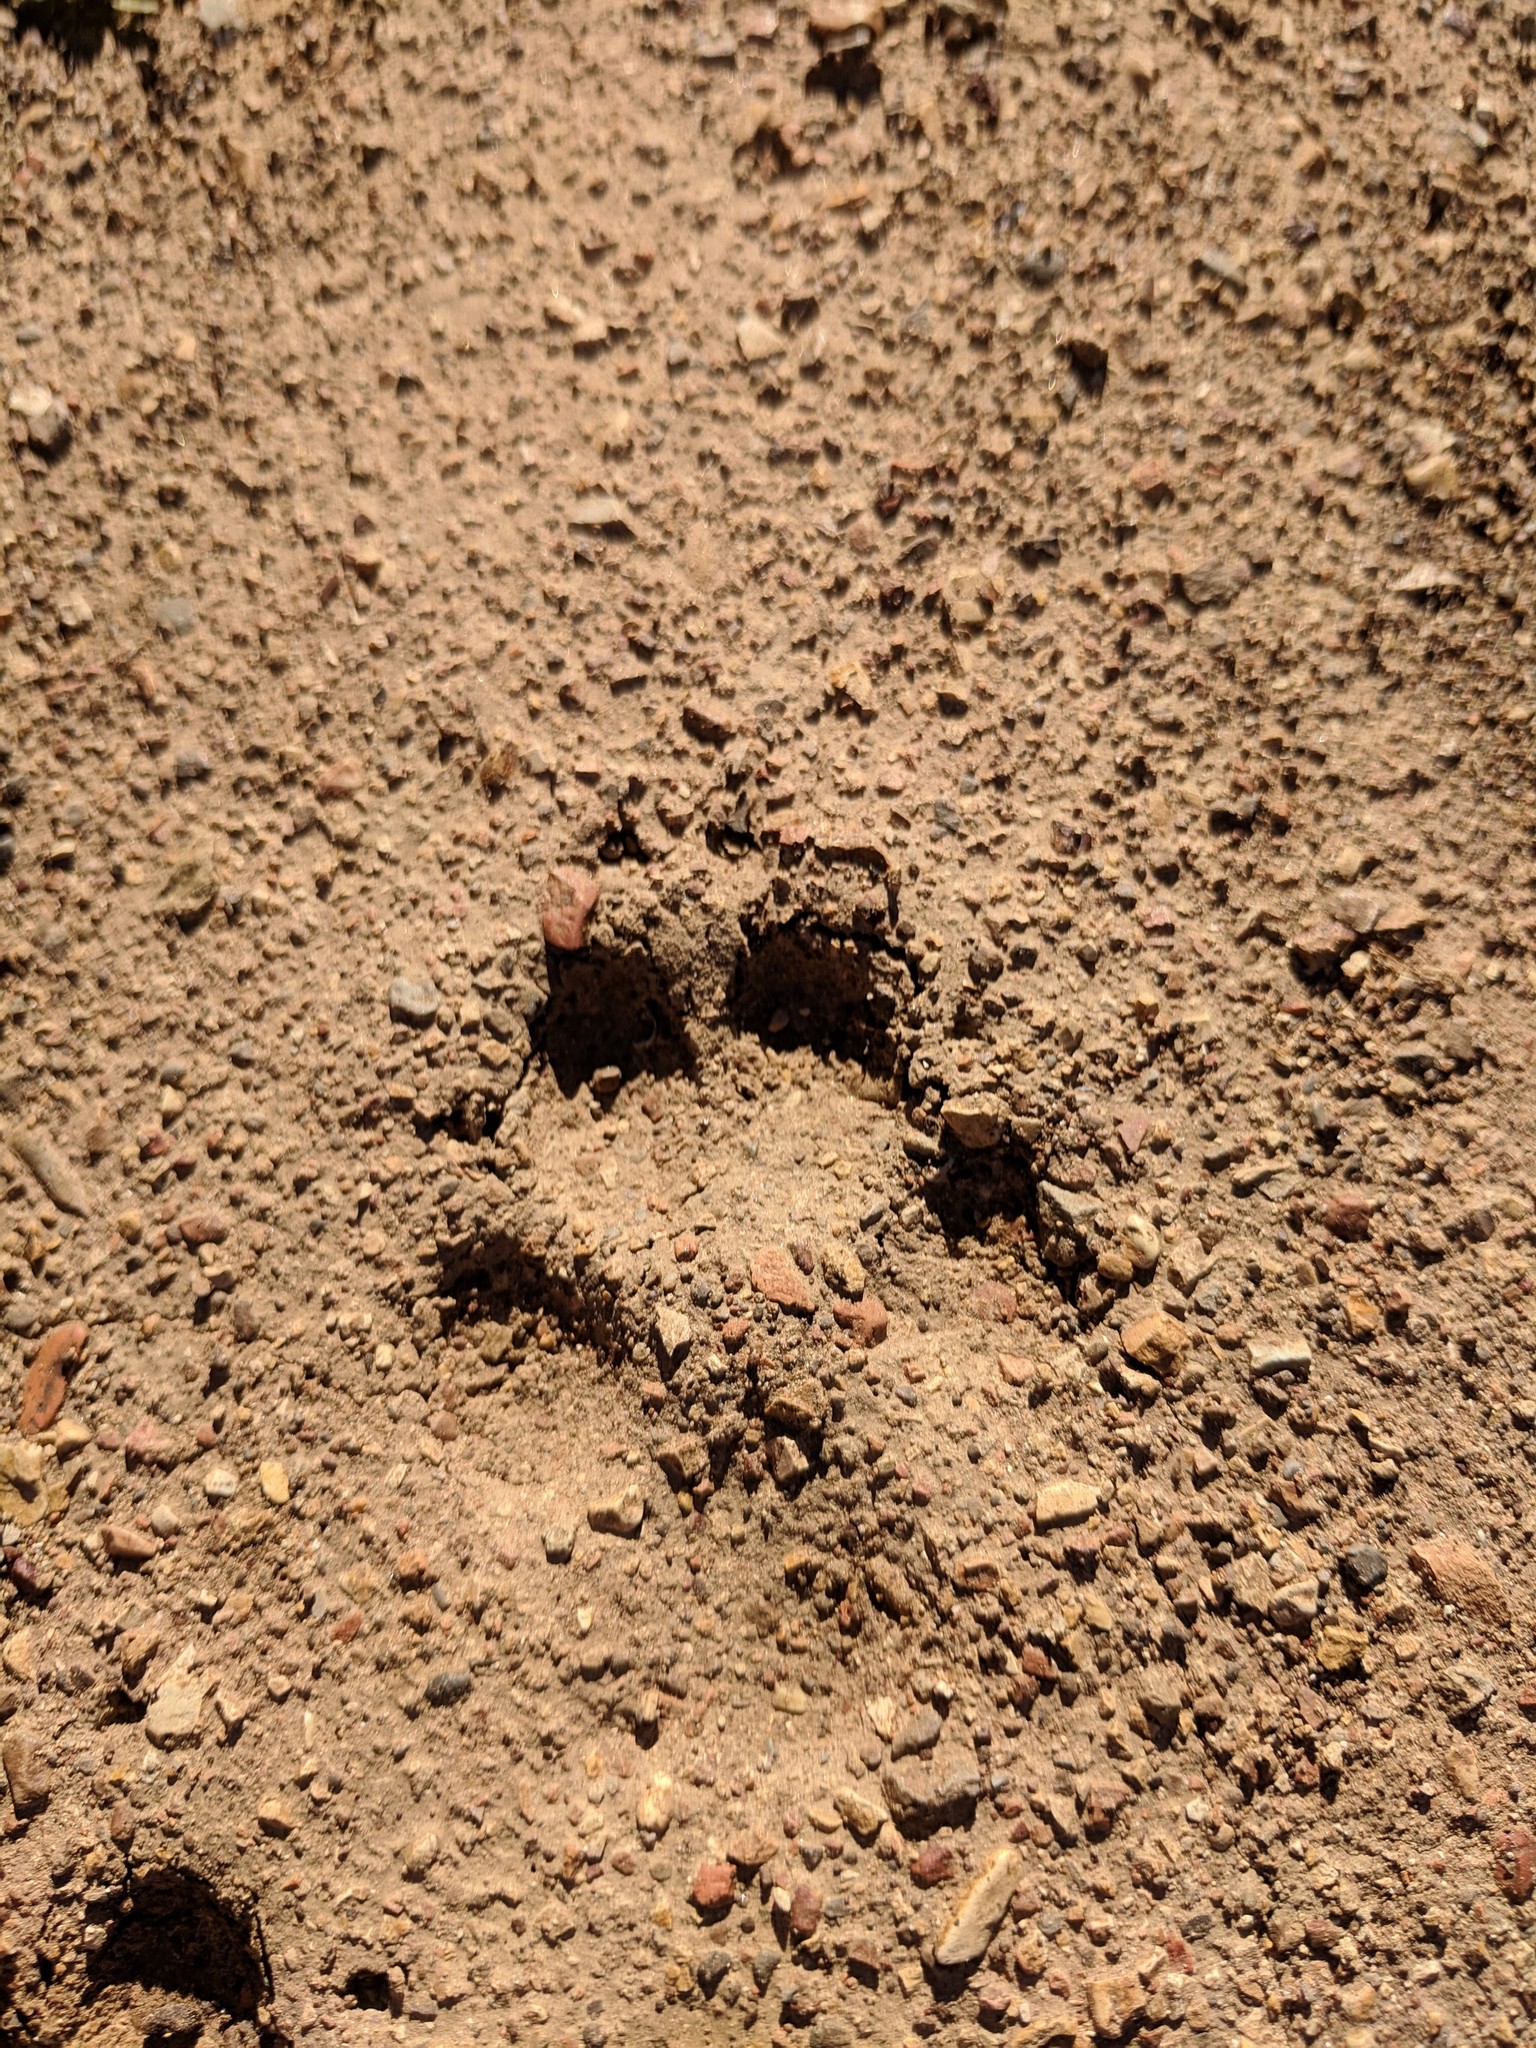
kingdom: Animalia
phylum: Chordata
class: Mammalia
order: Carnivora
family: Canidae
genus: Canis
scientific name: Canis latrans
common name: Coyote
